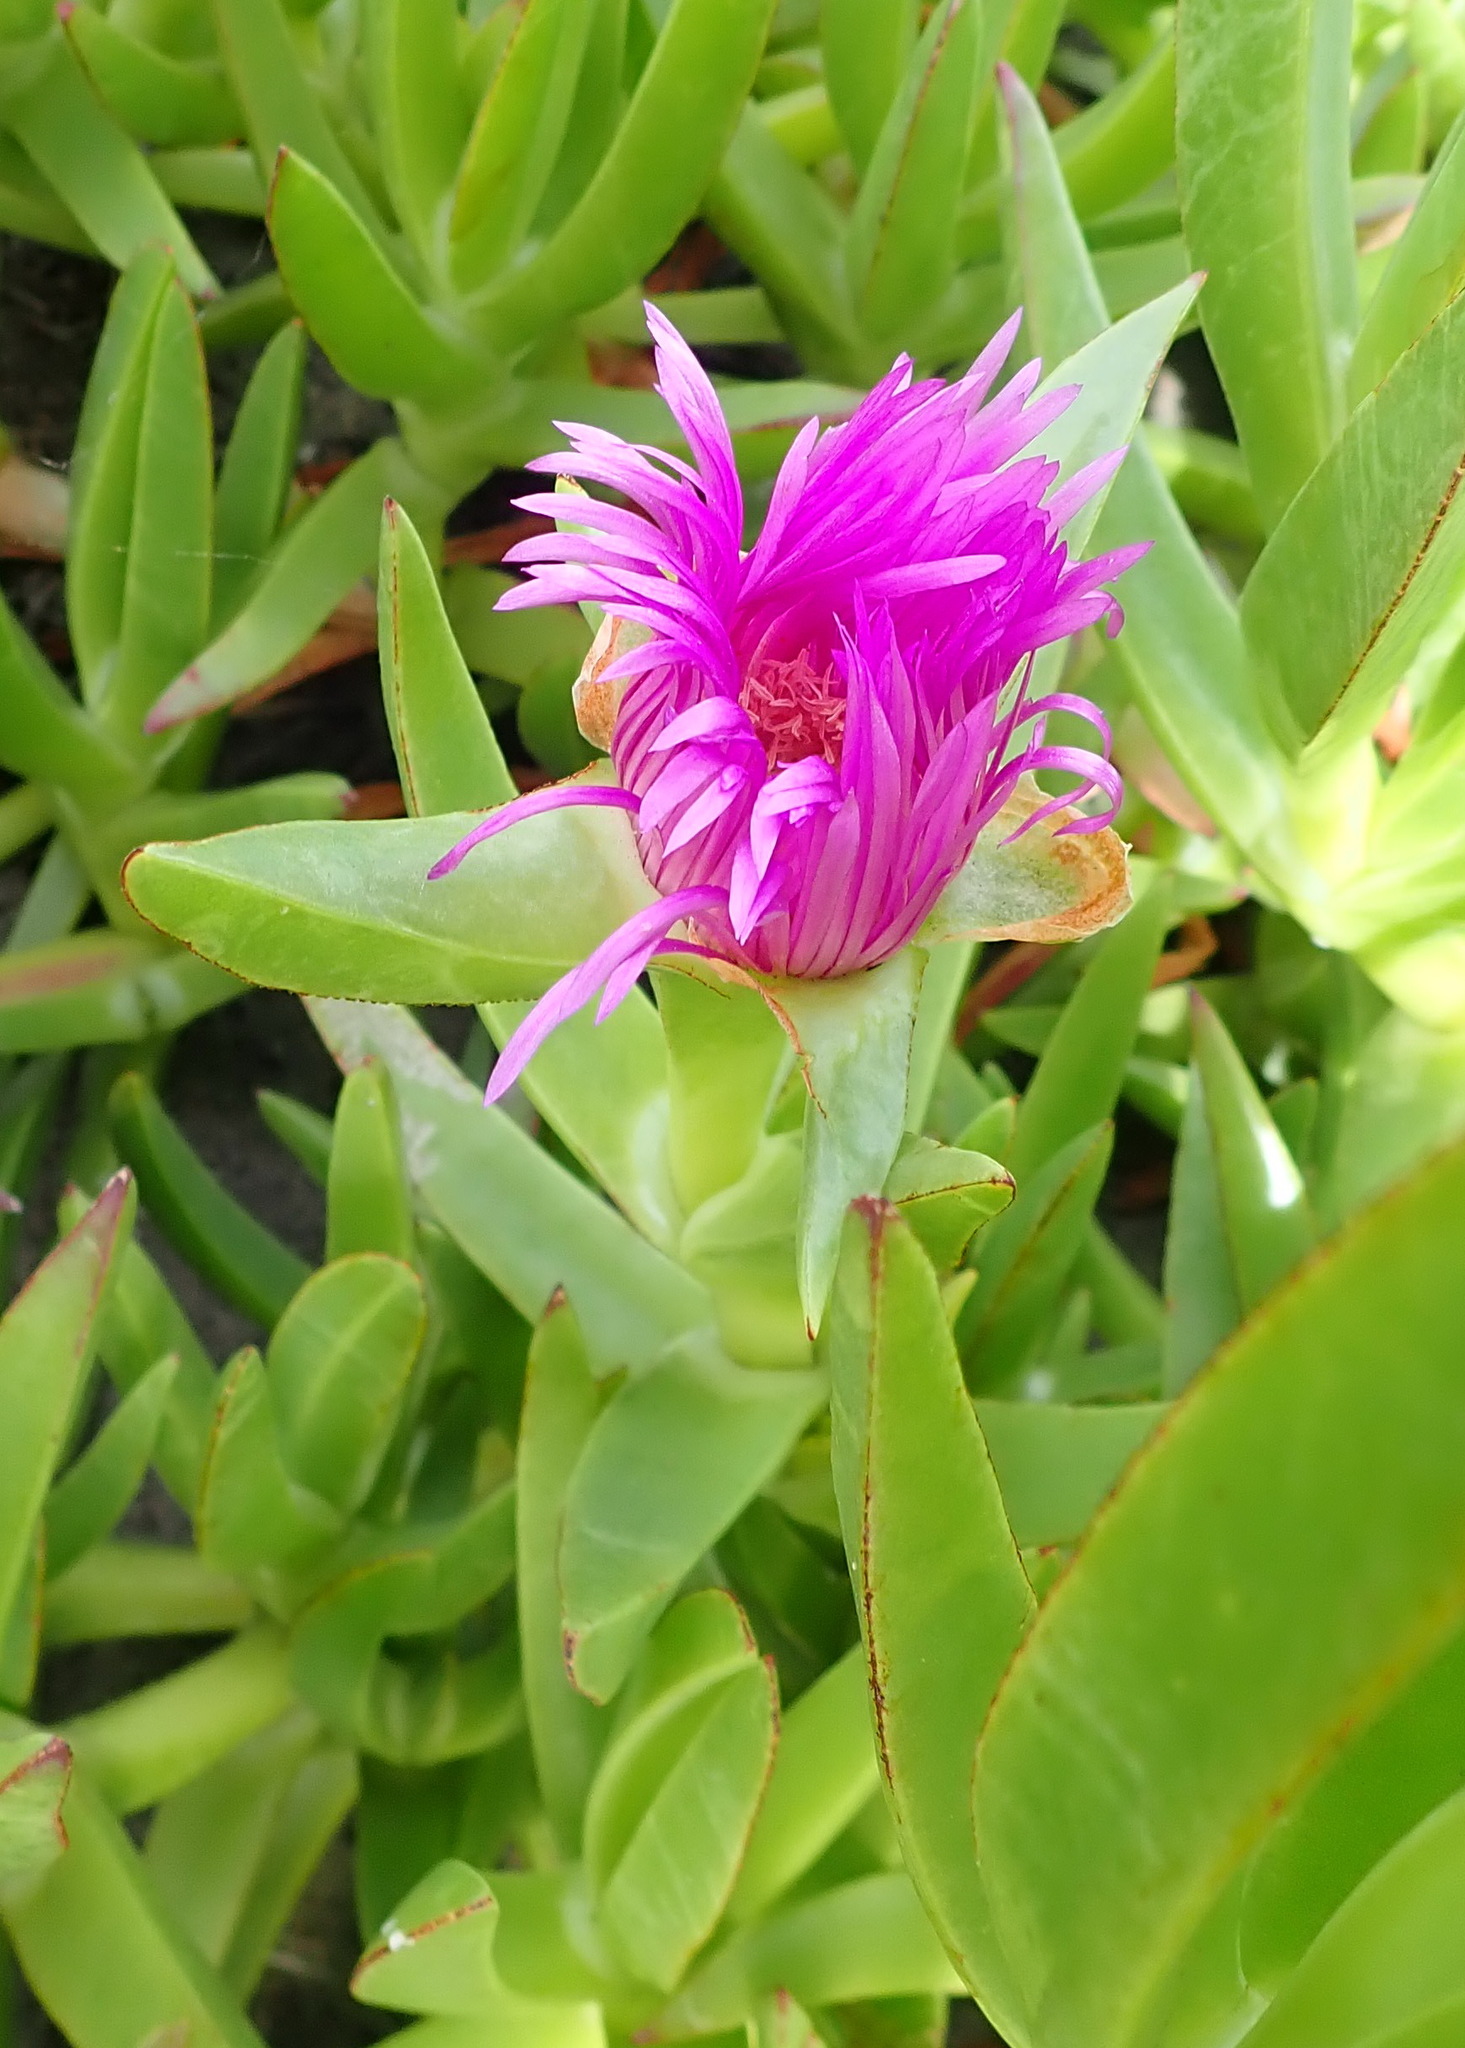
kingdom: Plantae
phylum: Tracheophyta
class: Magnoliopsida
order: Caryophyllales
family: Aizoaceae
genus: Carpobrotus
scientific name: Carpobrotus deliciosus
